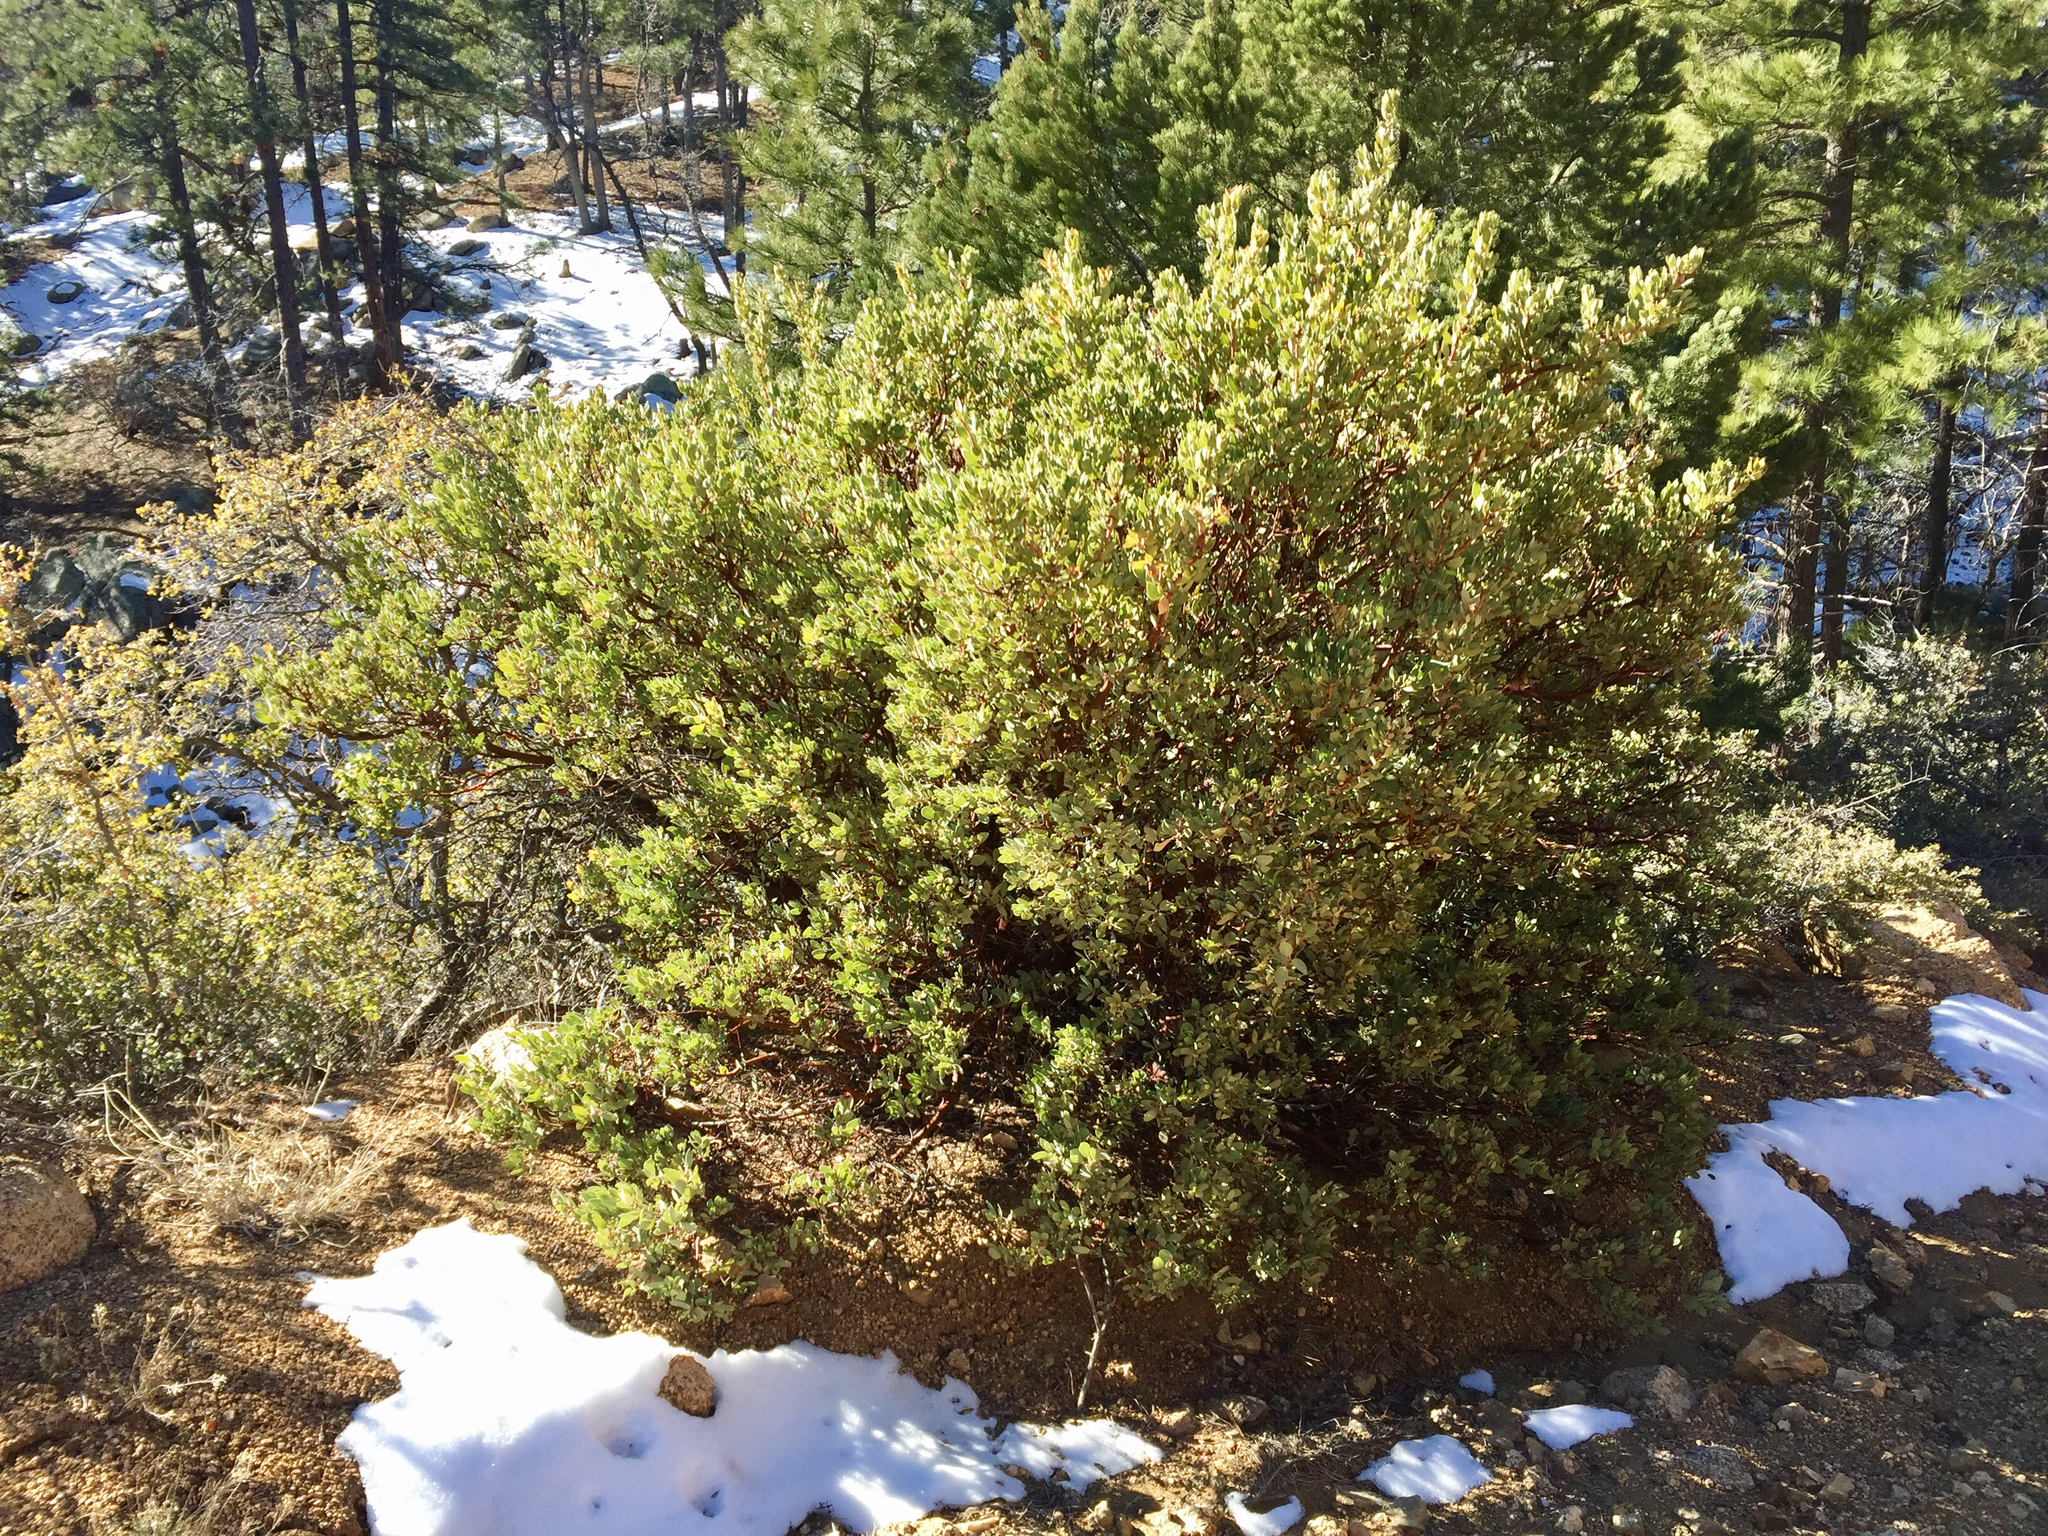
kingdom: Plantae
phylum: Tracheophyta
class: Magnoliopsida
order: Ericales
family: Ericaceae
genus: Arctostaphylos
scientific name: Arctostaphylos pringlei
